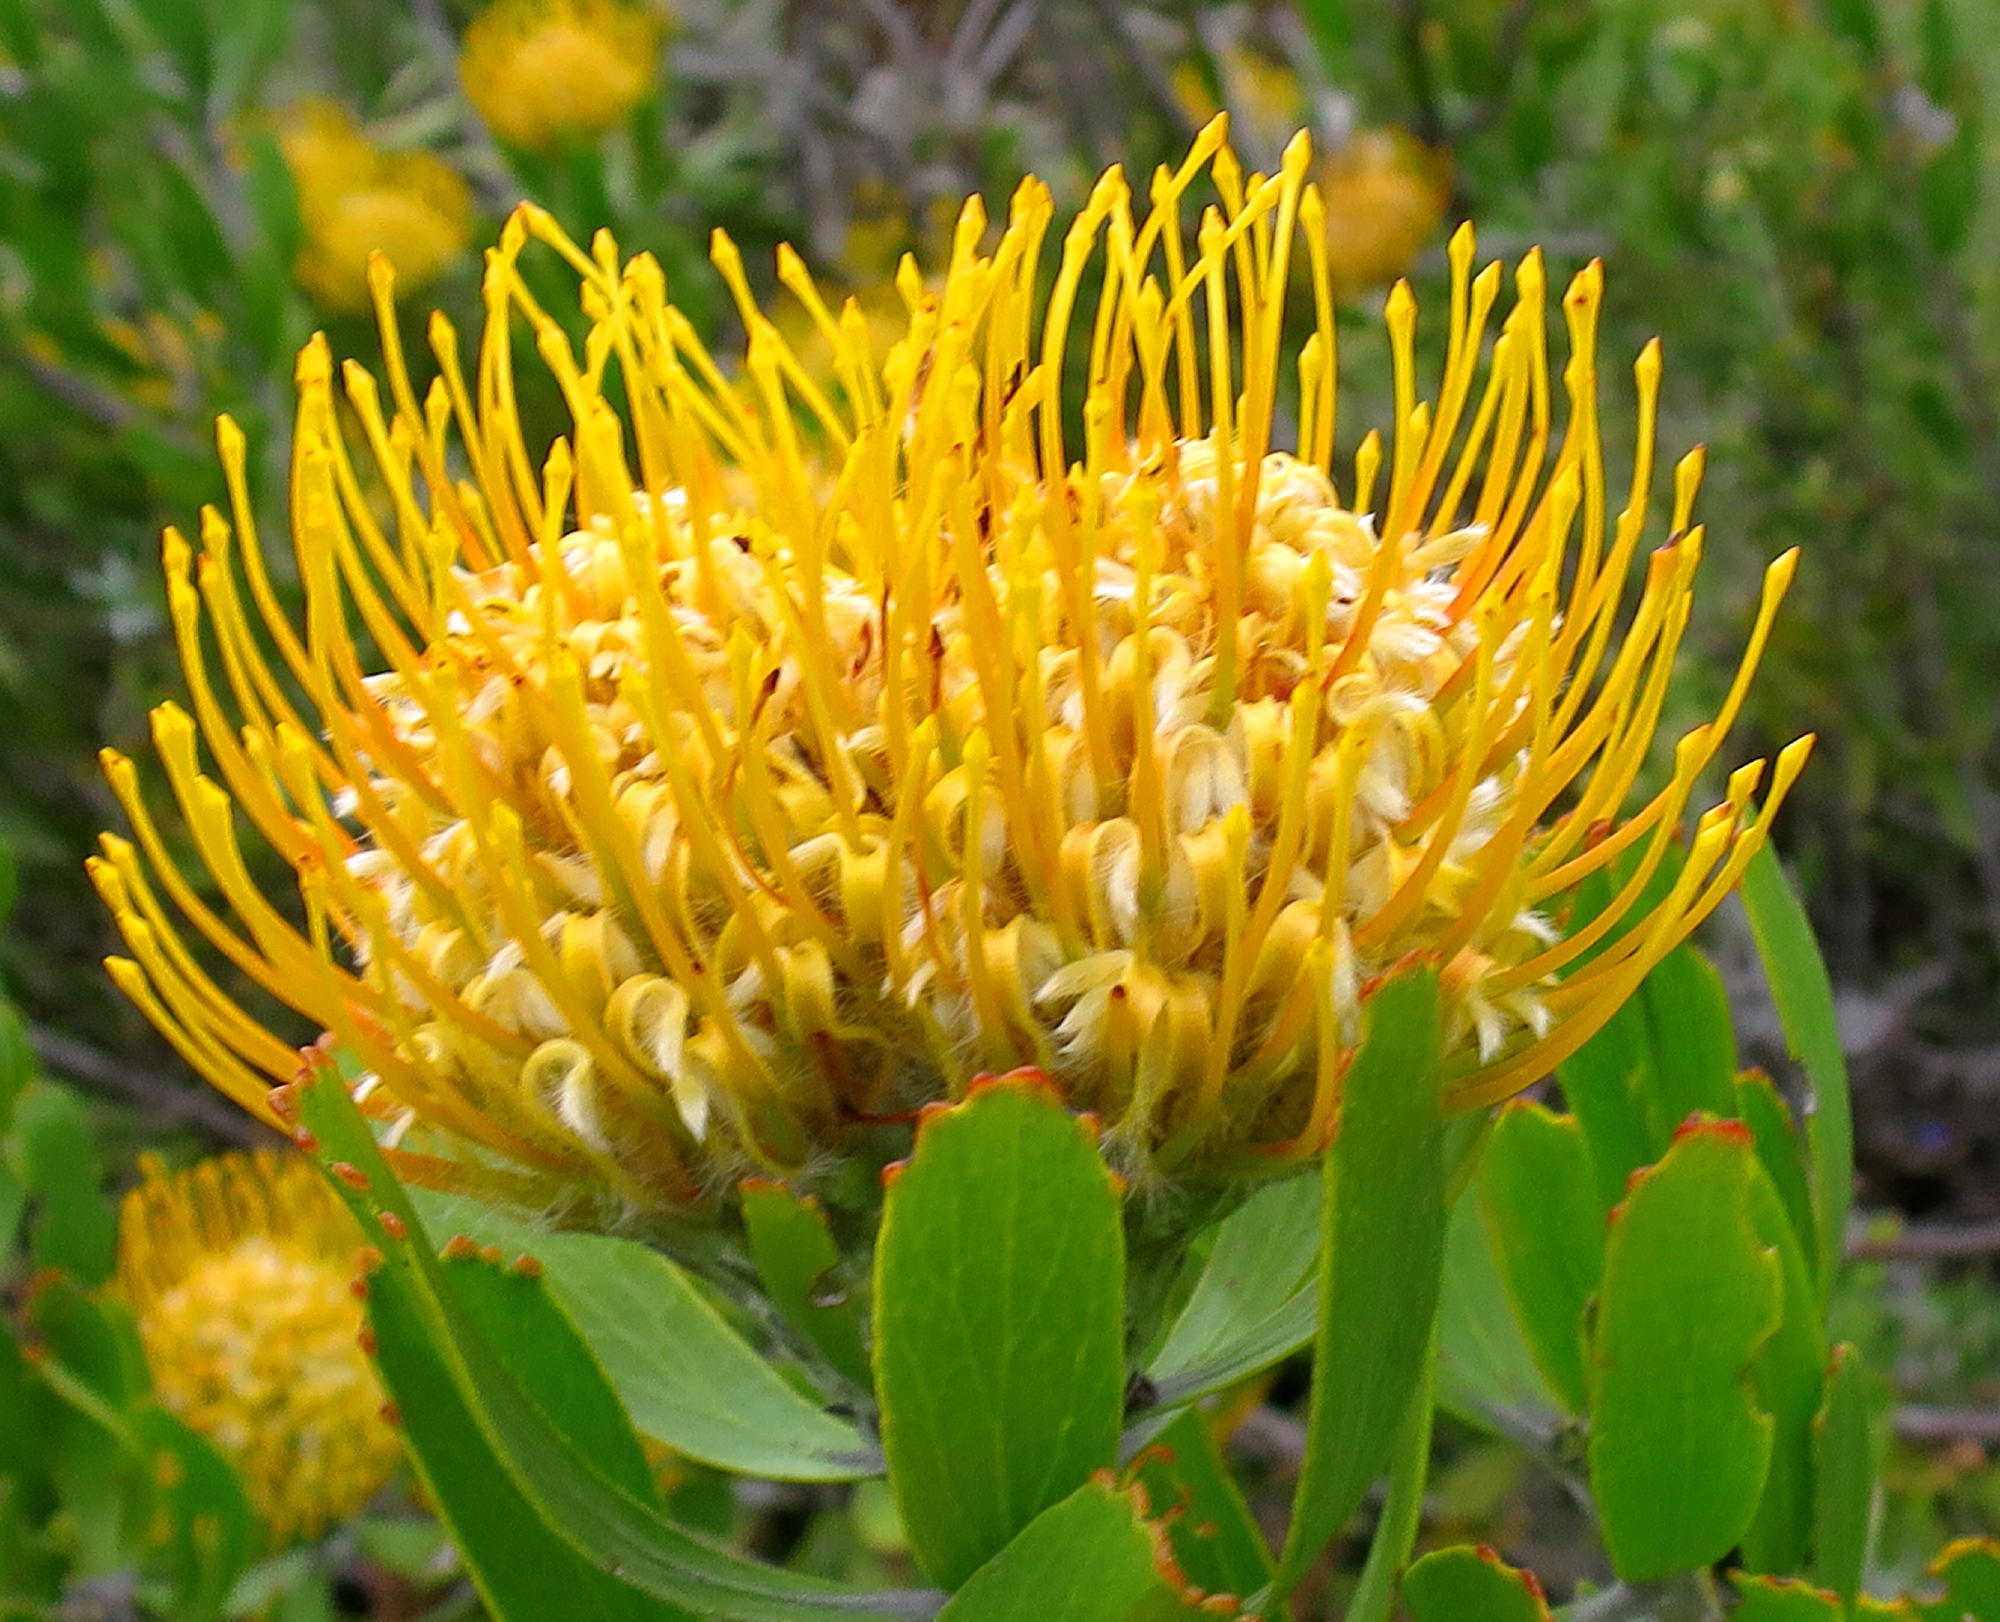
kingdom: Plantae
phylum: Tracheophyta
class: Magnoliopsida
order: Proteales
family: Proteaceae
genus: Leucospermum
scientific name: Leucospermum cuneiforme
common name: Common pincushion
